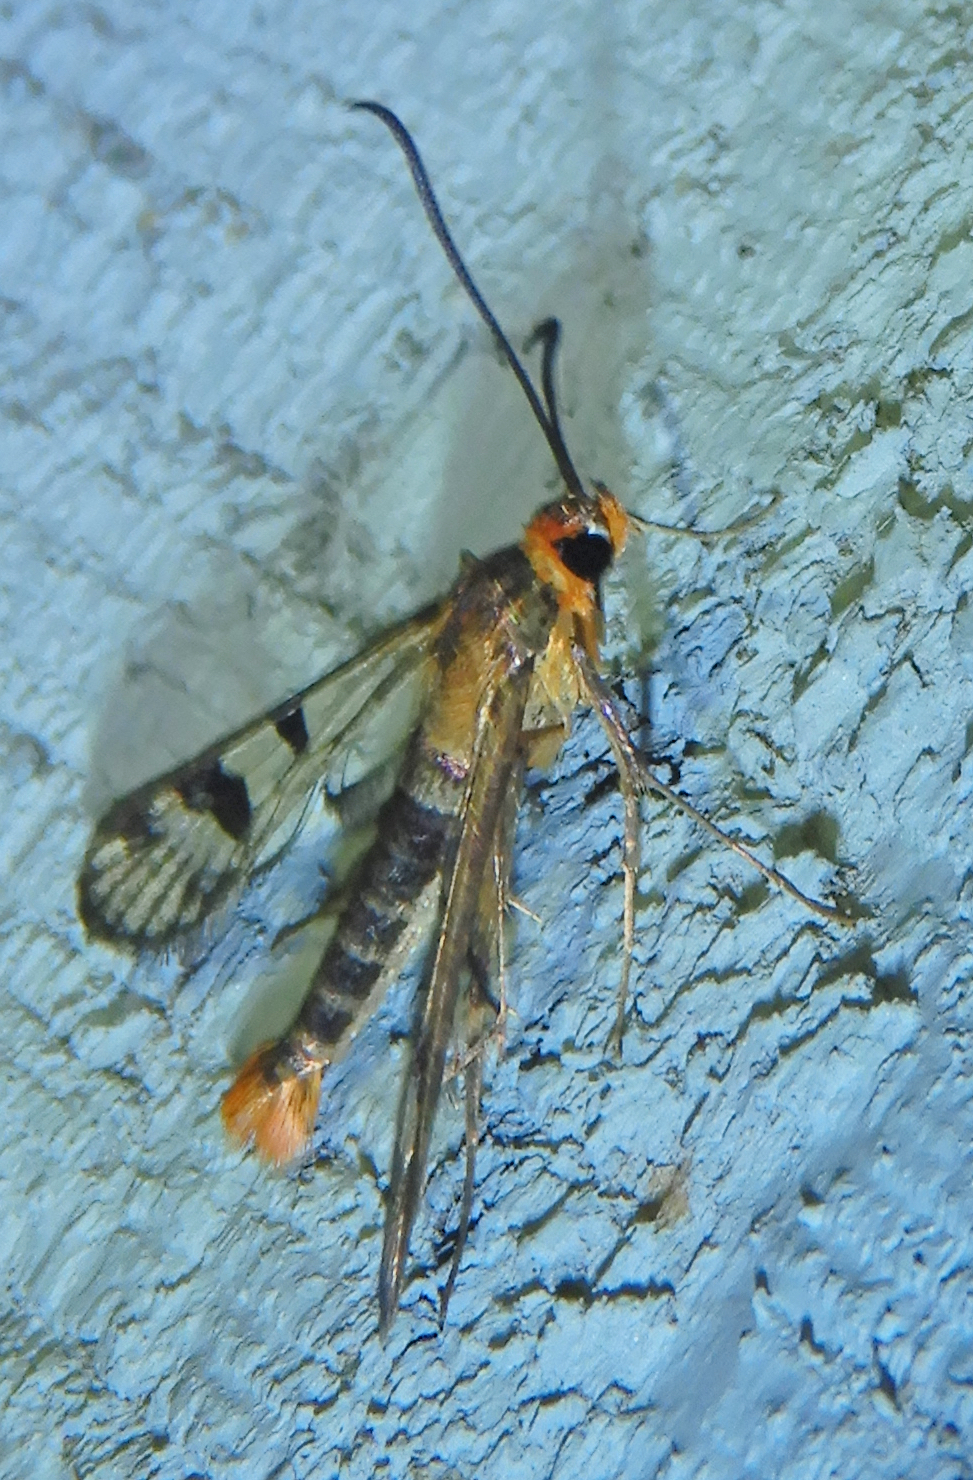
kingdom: Animalia
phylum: Arthropoda
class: Insecta
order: Lepidoptera
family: Sesiidae
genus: Synanthedon
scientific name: Synanthedon acerni
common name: Maple callus borer moth
